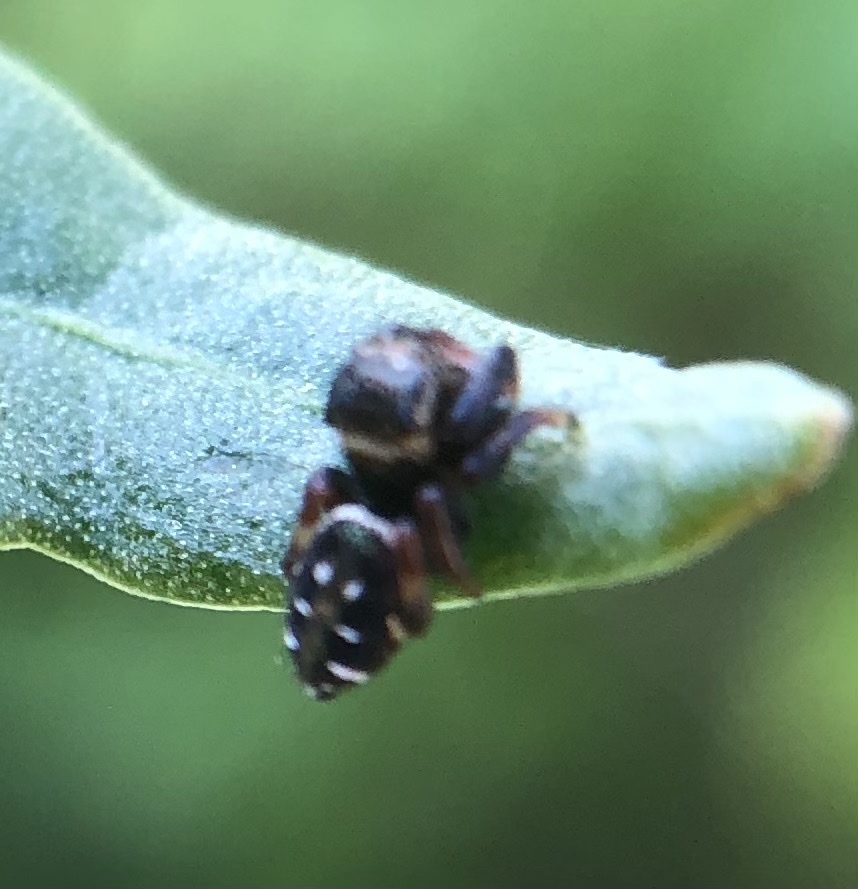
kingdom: Animalia
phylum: Arthropoda
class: Arachnida
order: Araneae
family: Salticidae
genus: Paraphidippus
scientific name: Paraphidippus aurantius
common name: Jumping spiders
